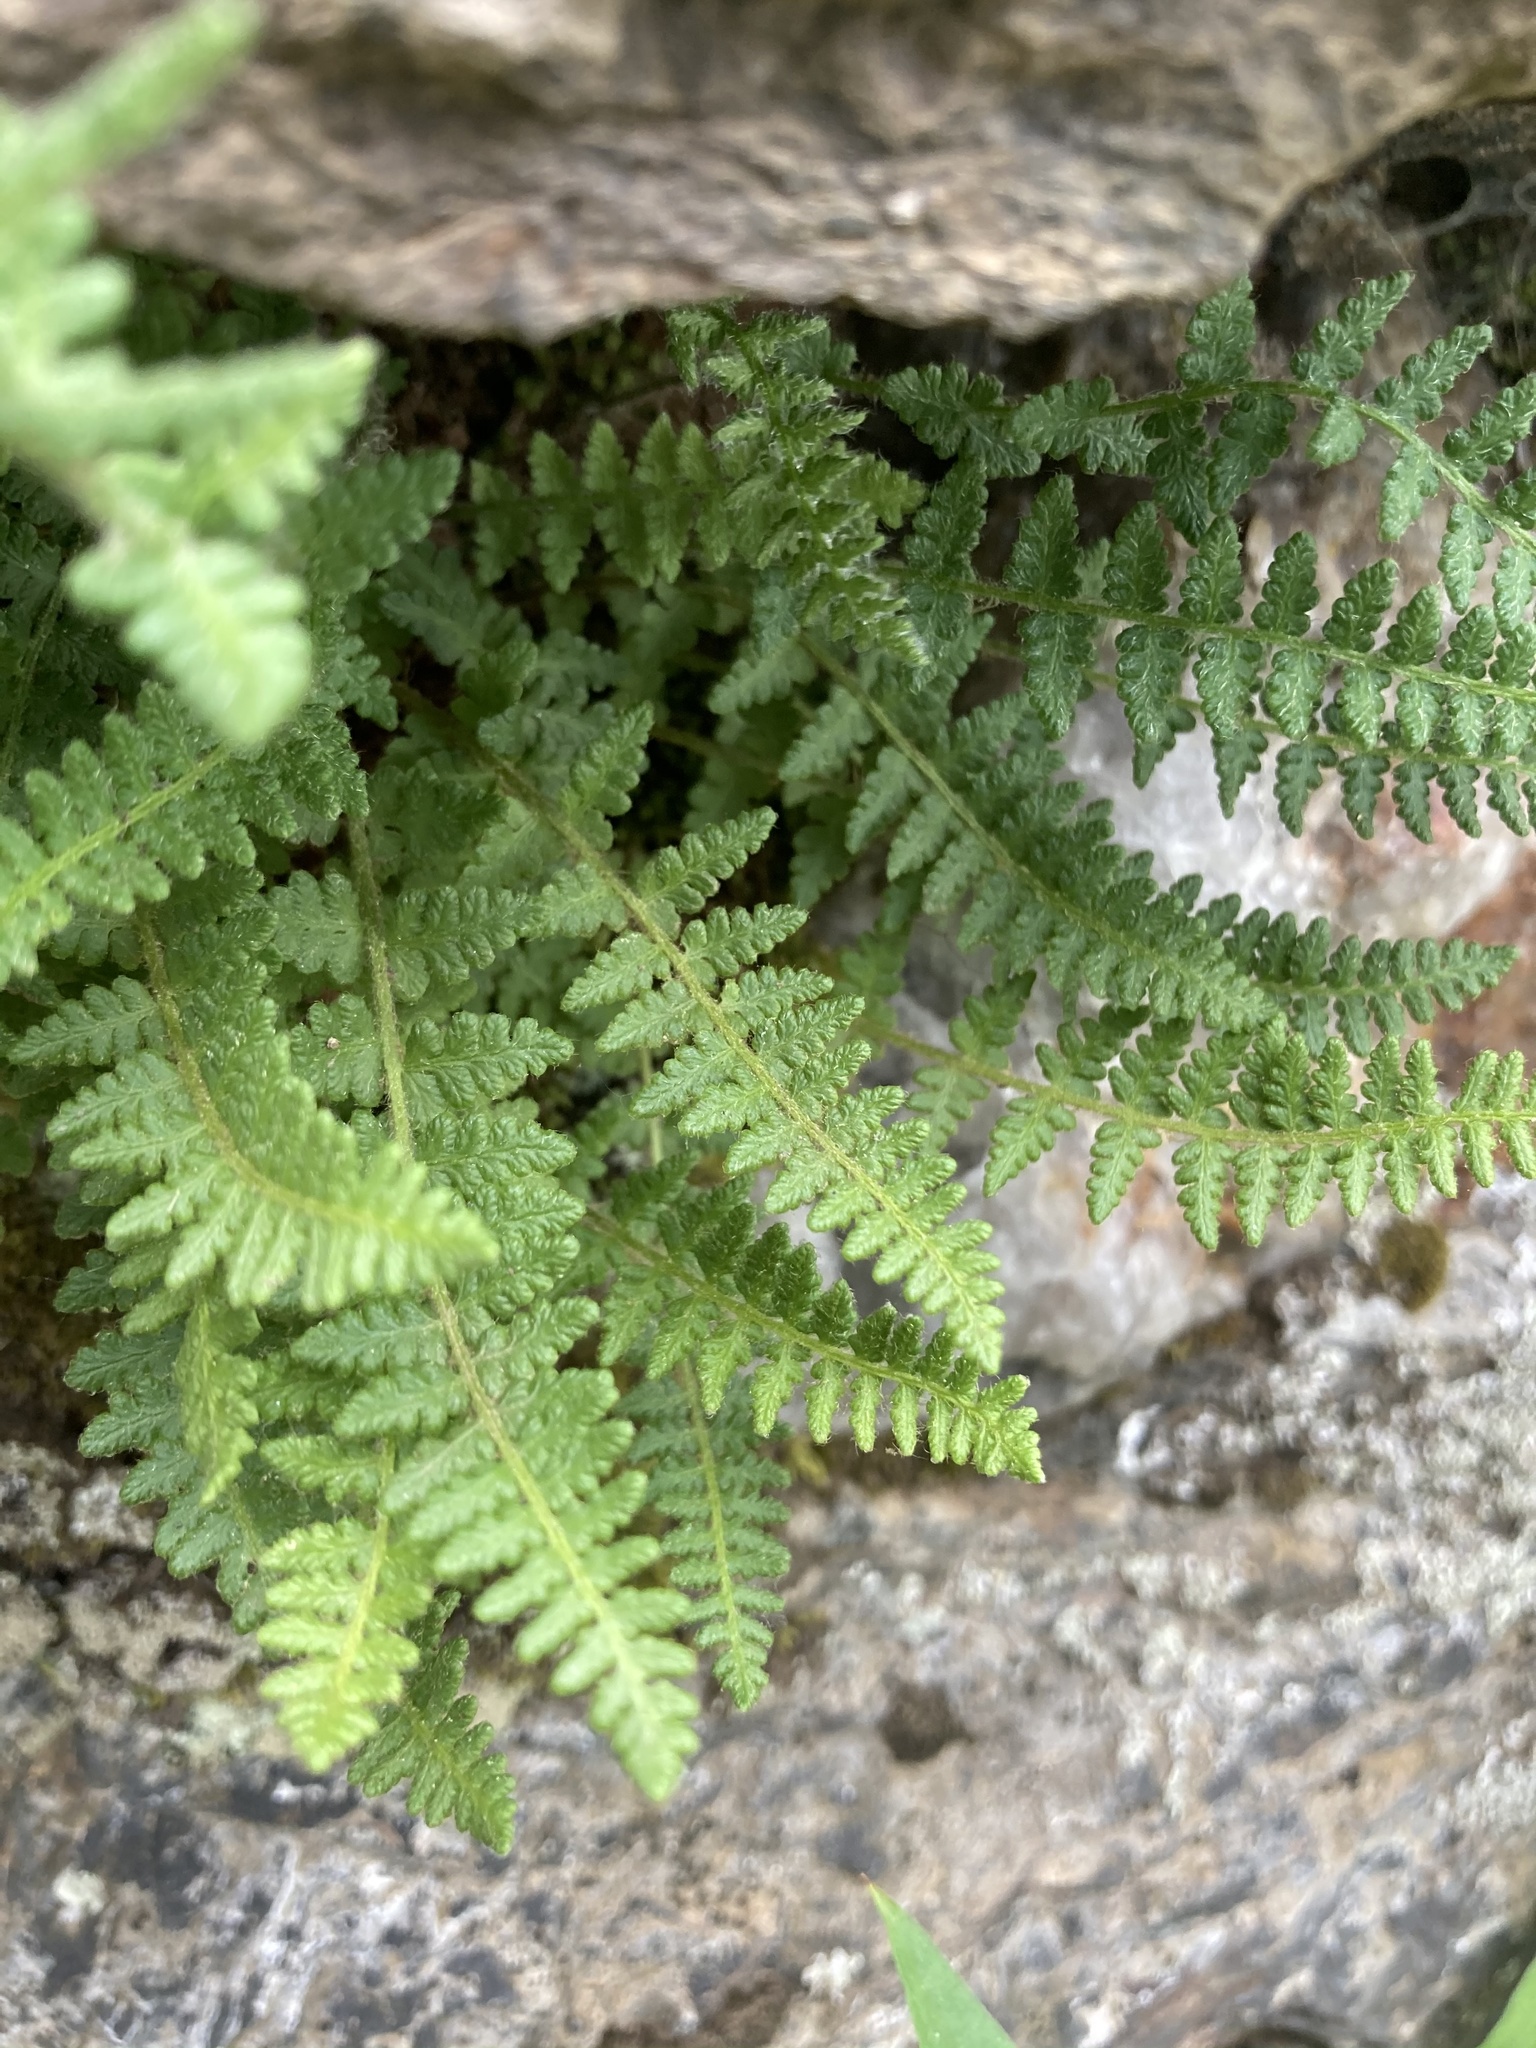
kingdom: Plantae
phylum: Tracheophyta
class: Polypodiopsida
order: Polypodiales
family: Woodsiaceae
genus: Woodsia
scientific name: Woodsia ilvensis
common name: Fragrant woodsia
